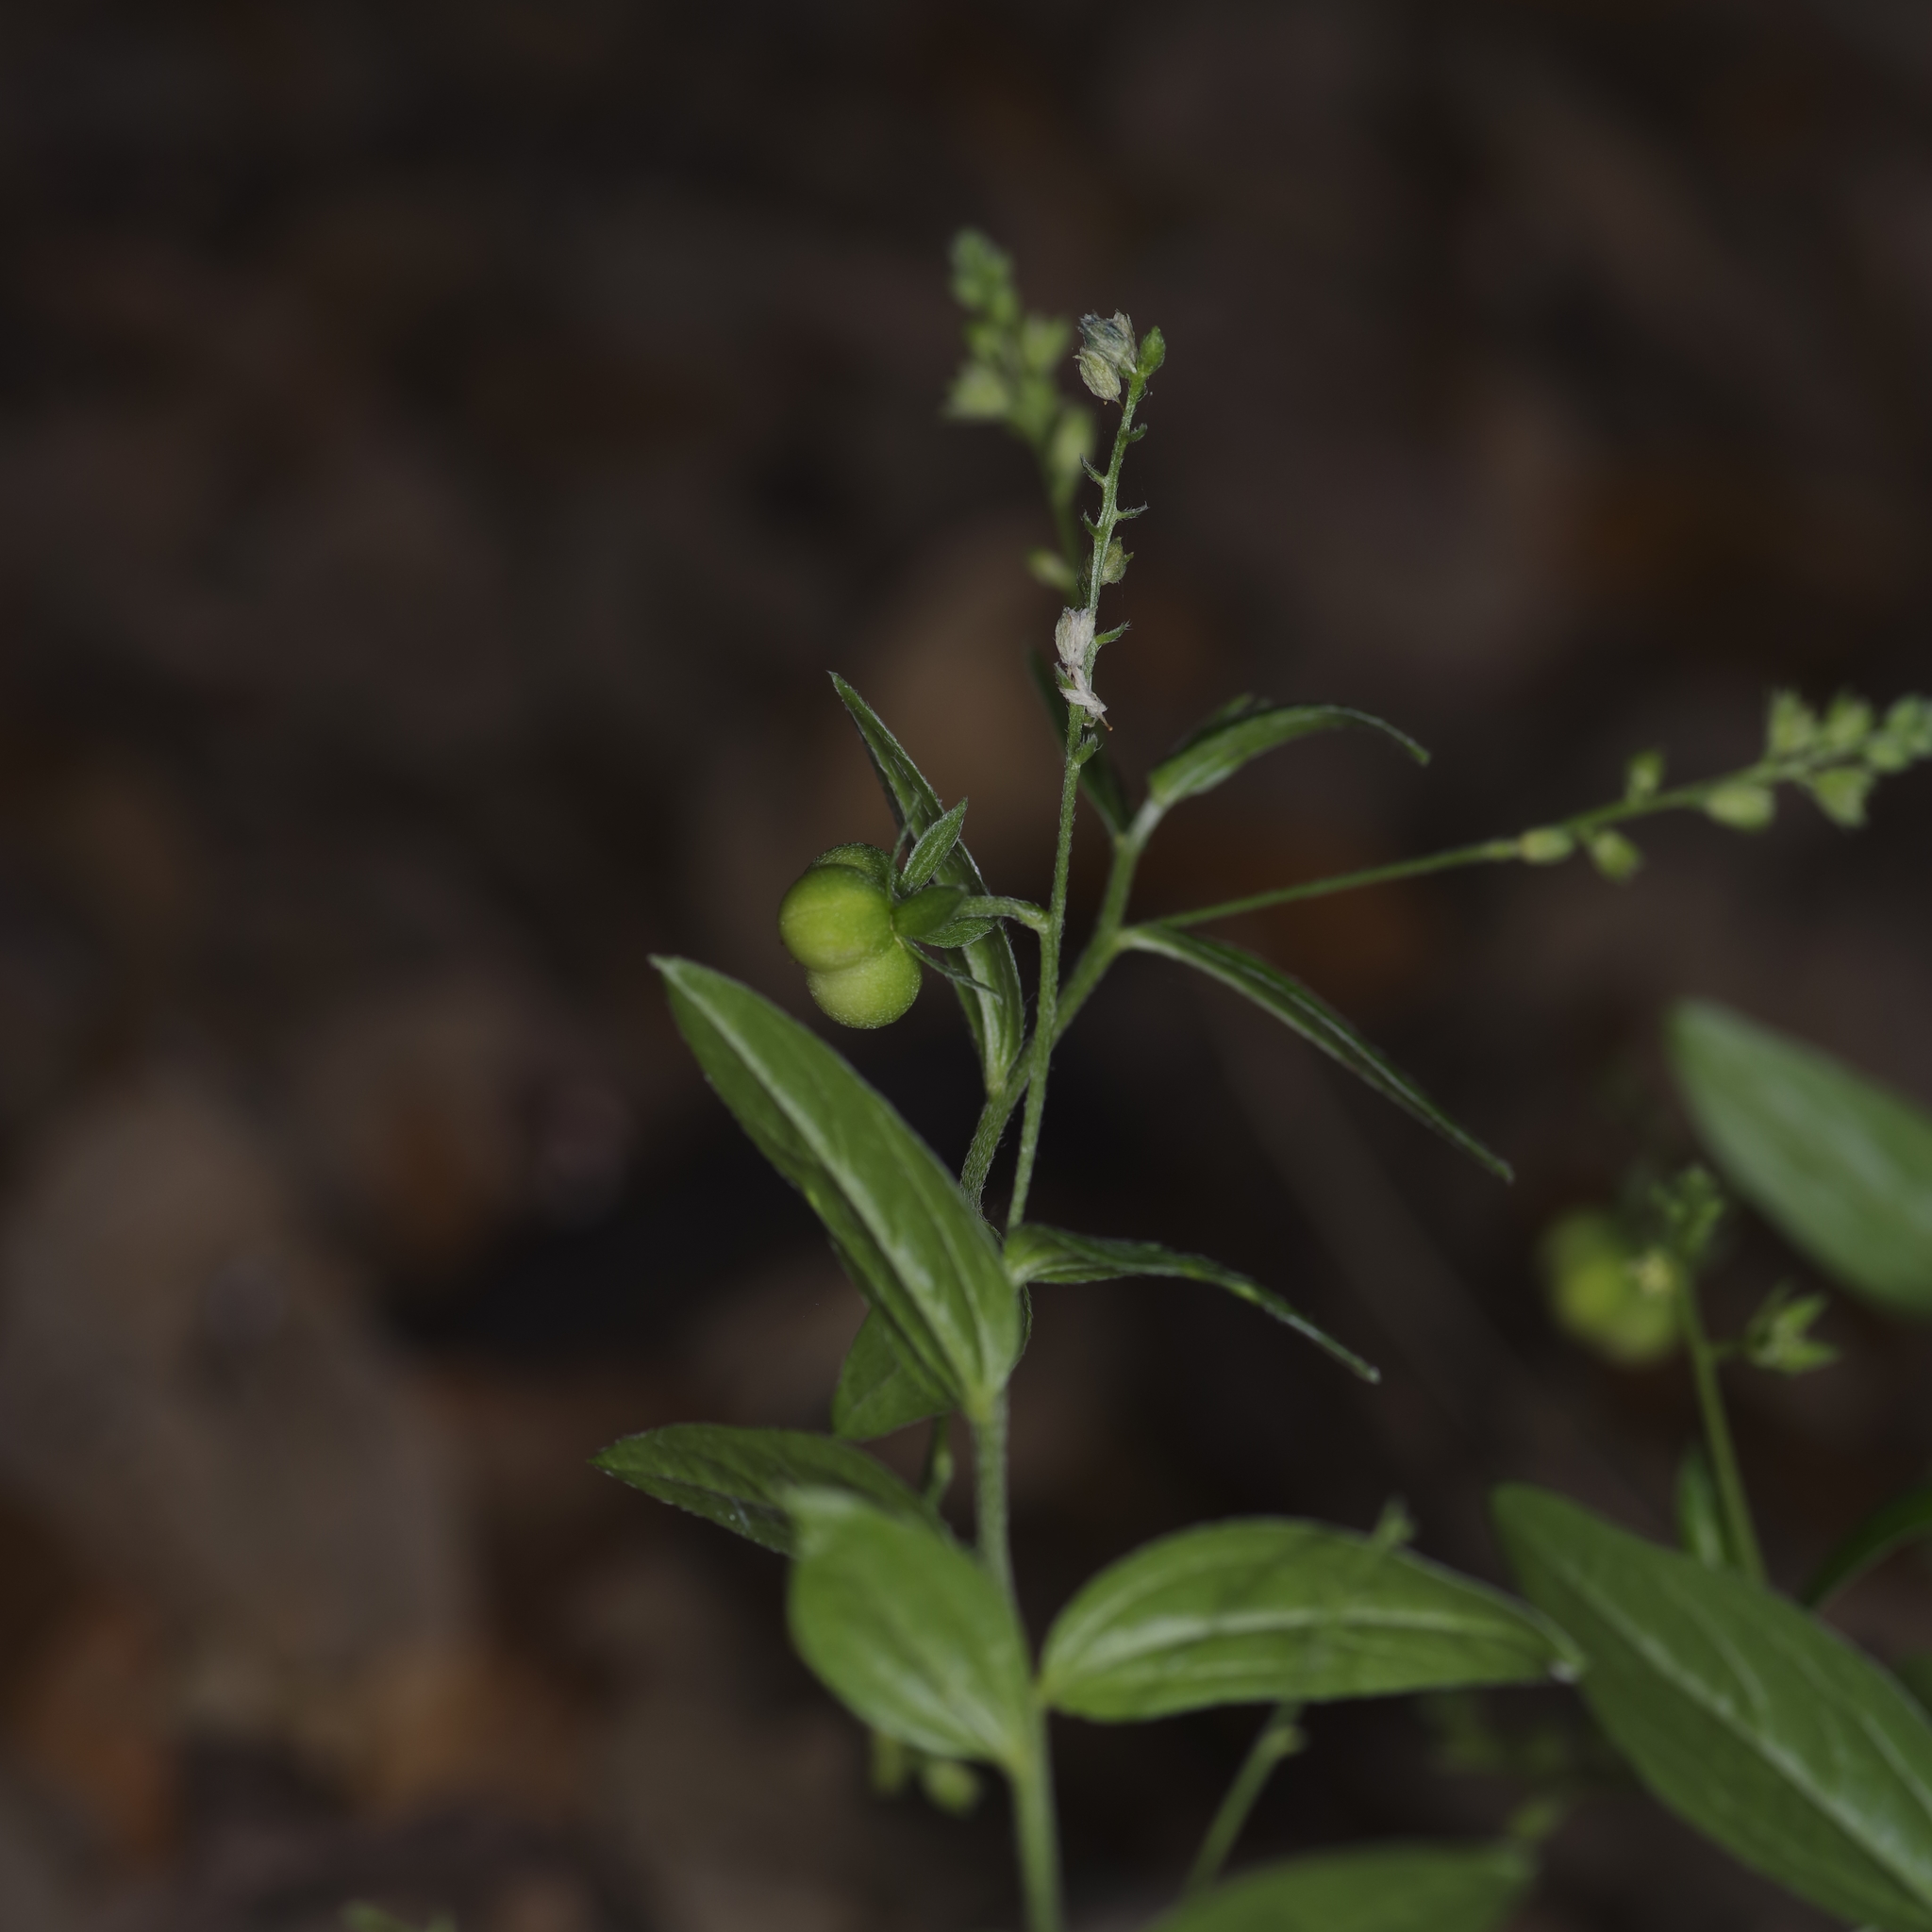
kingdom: Plantae
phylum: Tracheophyta
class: Magnoliopsida
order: Malpighiales
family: Euphorbiaceae
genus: Ditaxis
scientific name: Ditaxis mercurialina
